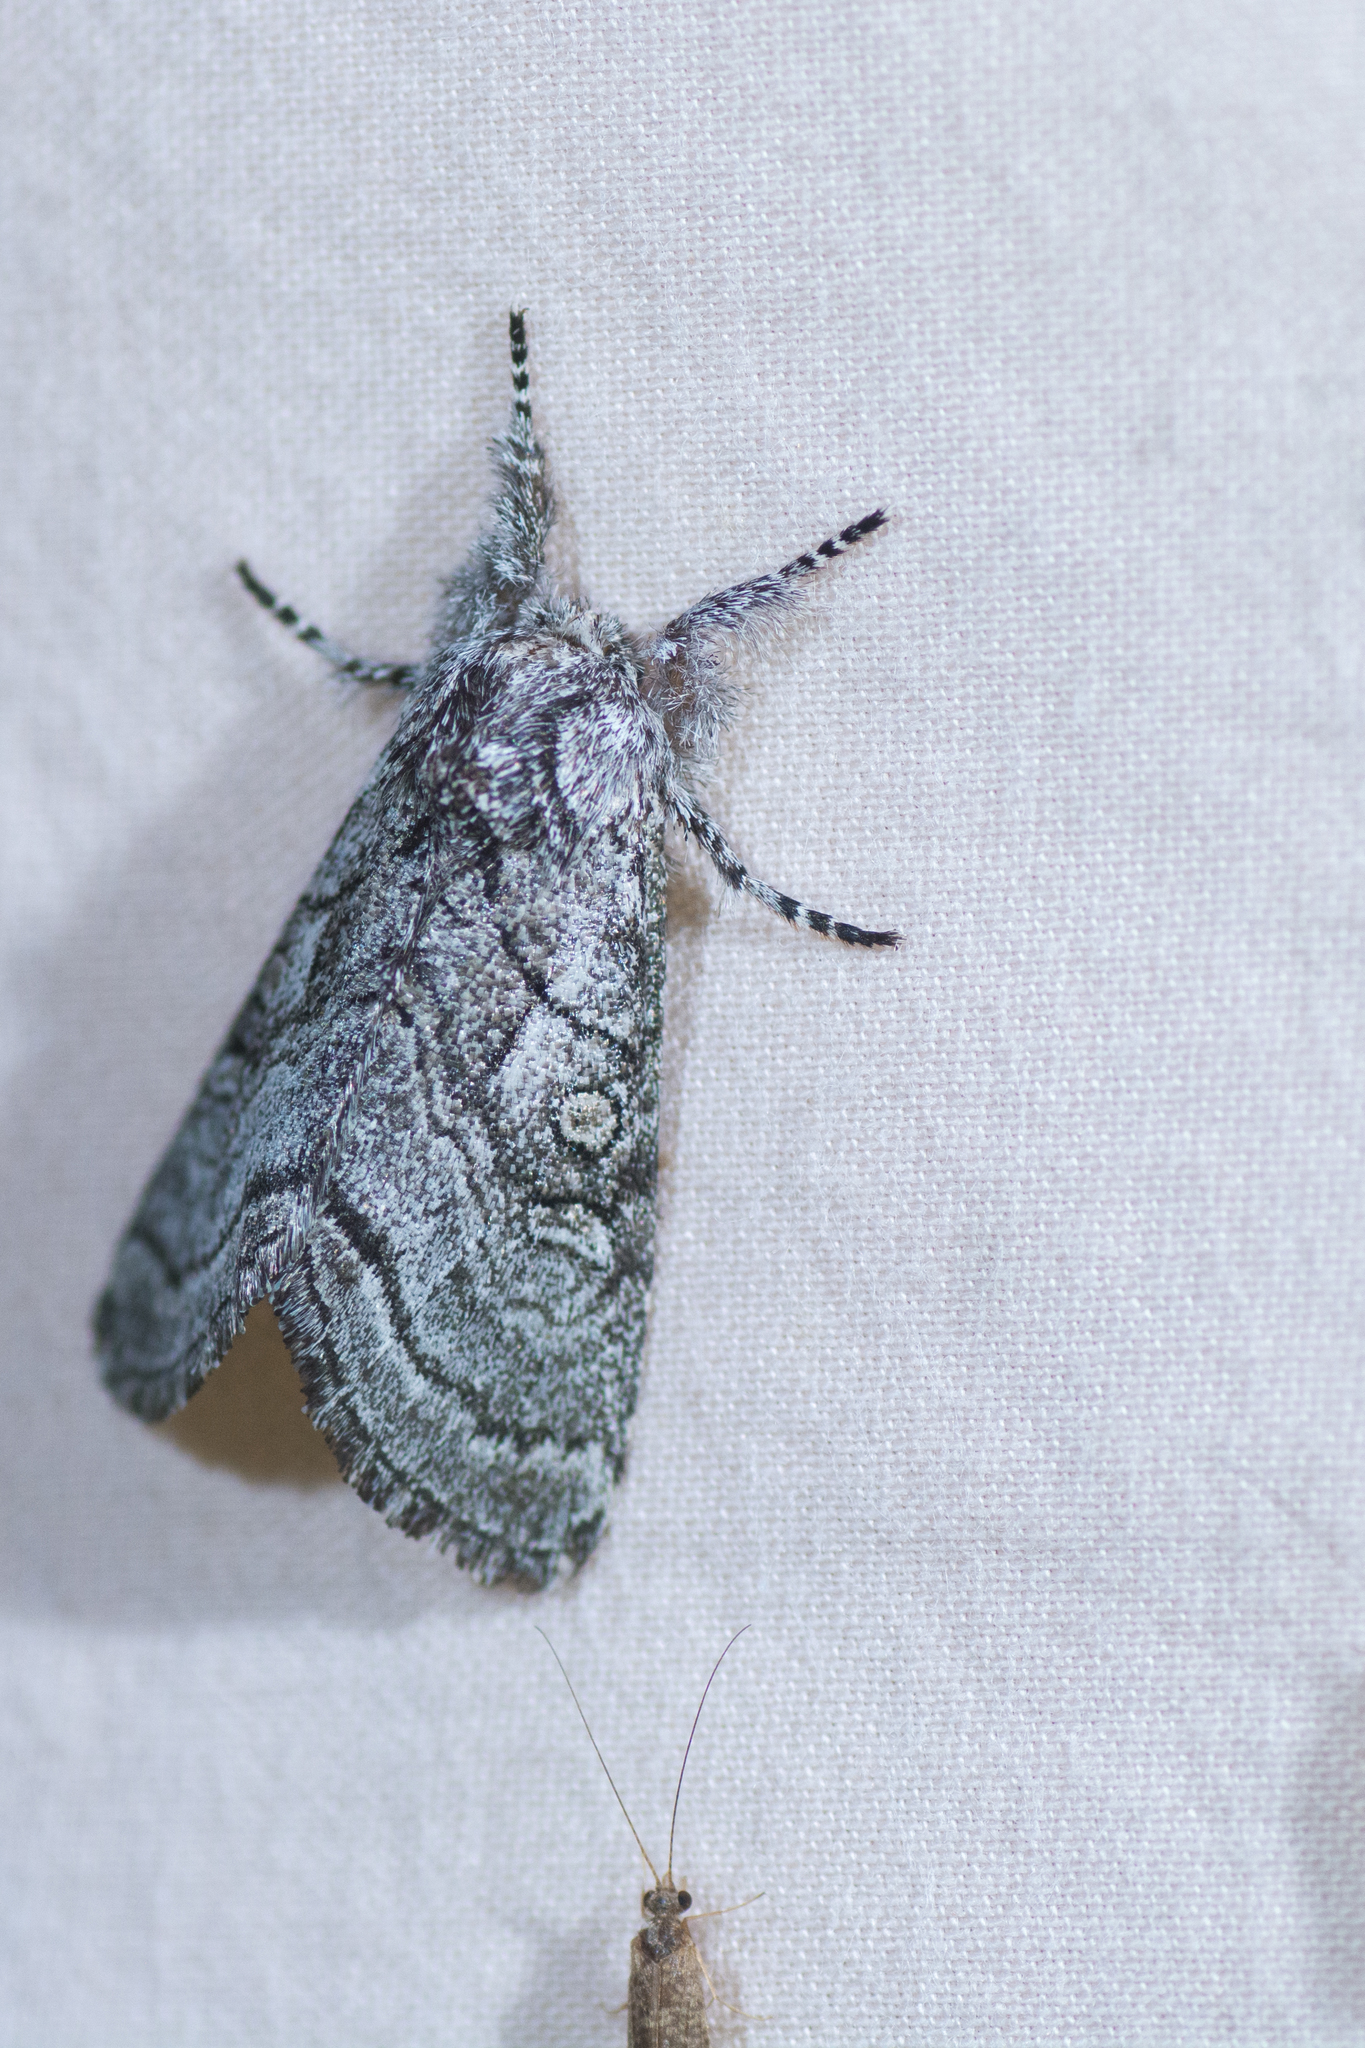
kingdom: Animalia
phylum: Arthropoda
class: Insecta
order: Lepidoptera
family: Noctuidae
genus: Pseudopanthea
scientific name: Pseudopanthea palata
